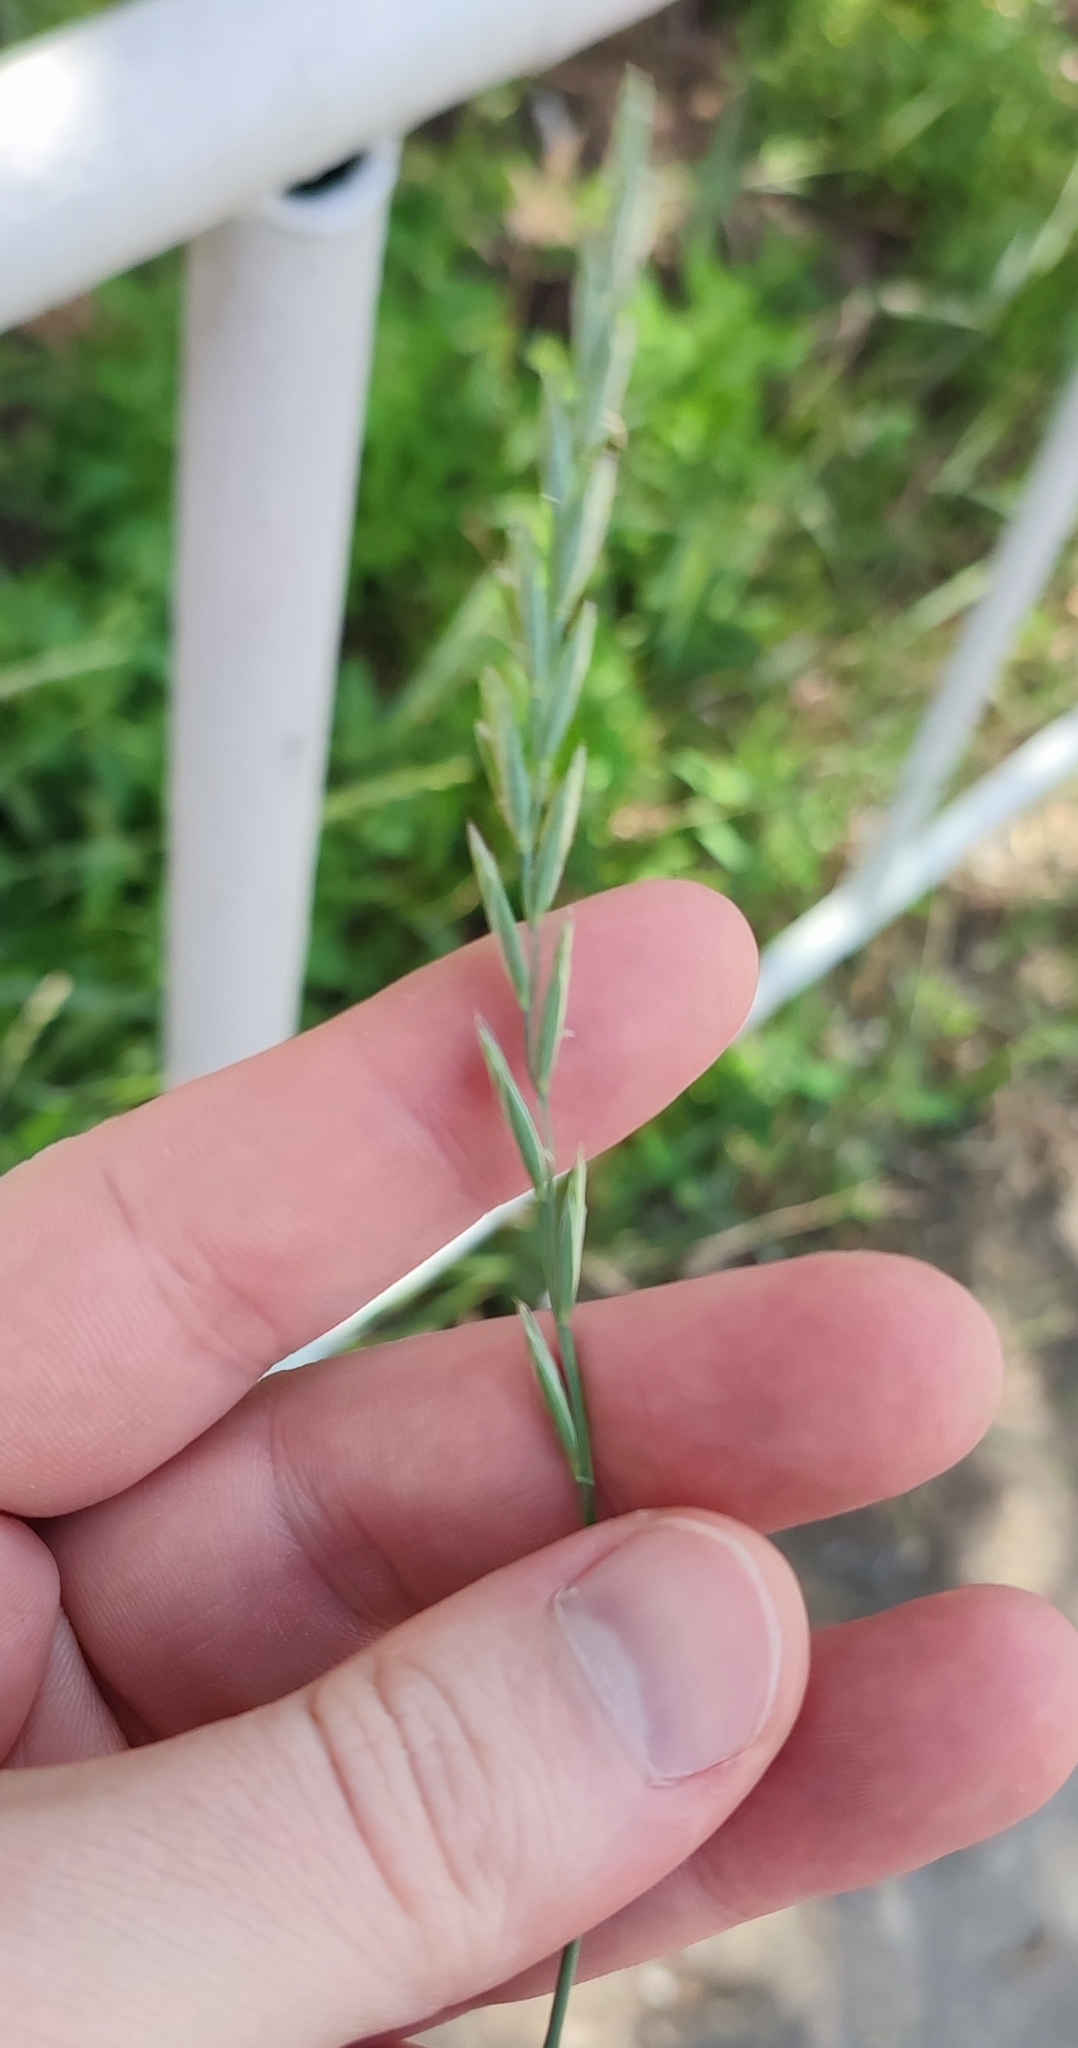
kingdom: Plantae
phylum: Tracheophyta
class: Liliopsida
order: Poales
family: Poaceae
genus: Elymus
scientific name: Elymus repens
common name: Quackgrass
